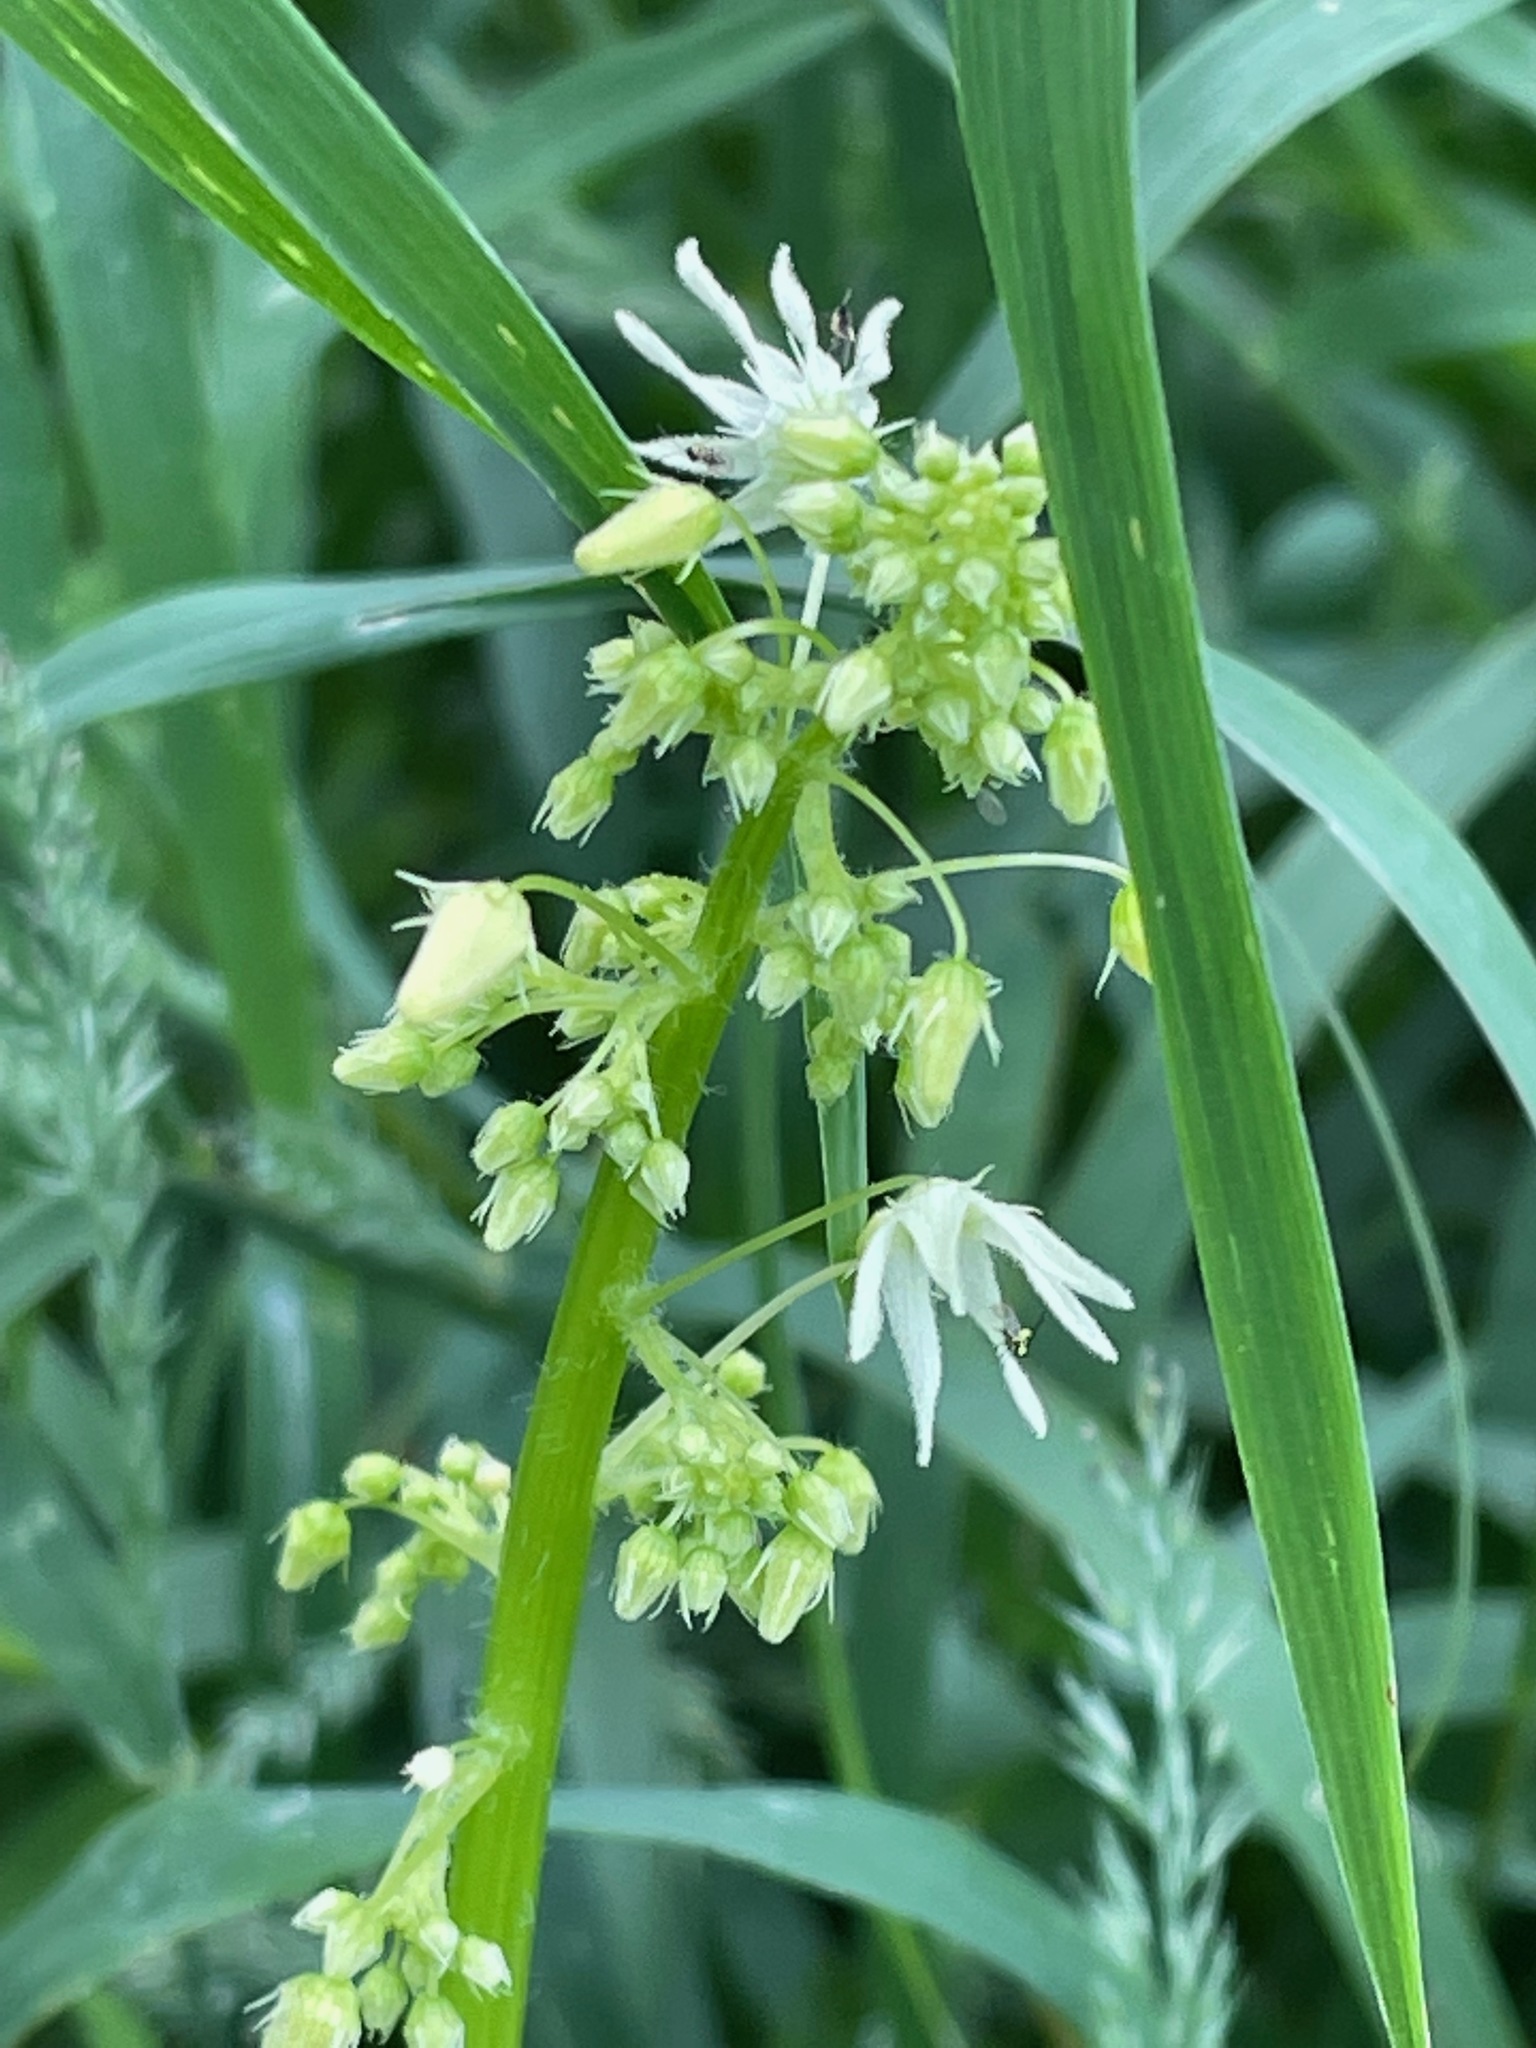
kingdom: Plantae
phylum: Tracheophyta
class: Magnoliopsida
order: Cucurbitales
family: Cucurbitaceae
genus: Echinocystis
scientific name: Echinocystis lobata
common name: Wild cucumber
